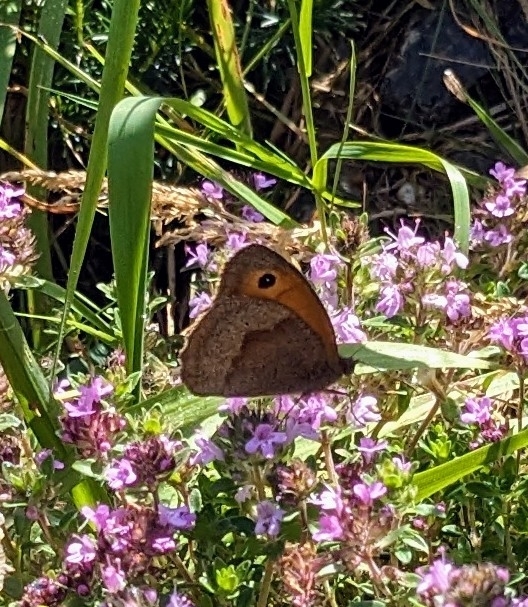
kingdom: Animalia
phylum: Arthropoda
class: Insecta
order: Lepidoptera
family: Nymphalidae
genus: Maniola
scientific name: Maniola jurtina
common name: Meadow brown
